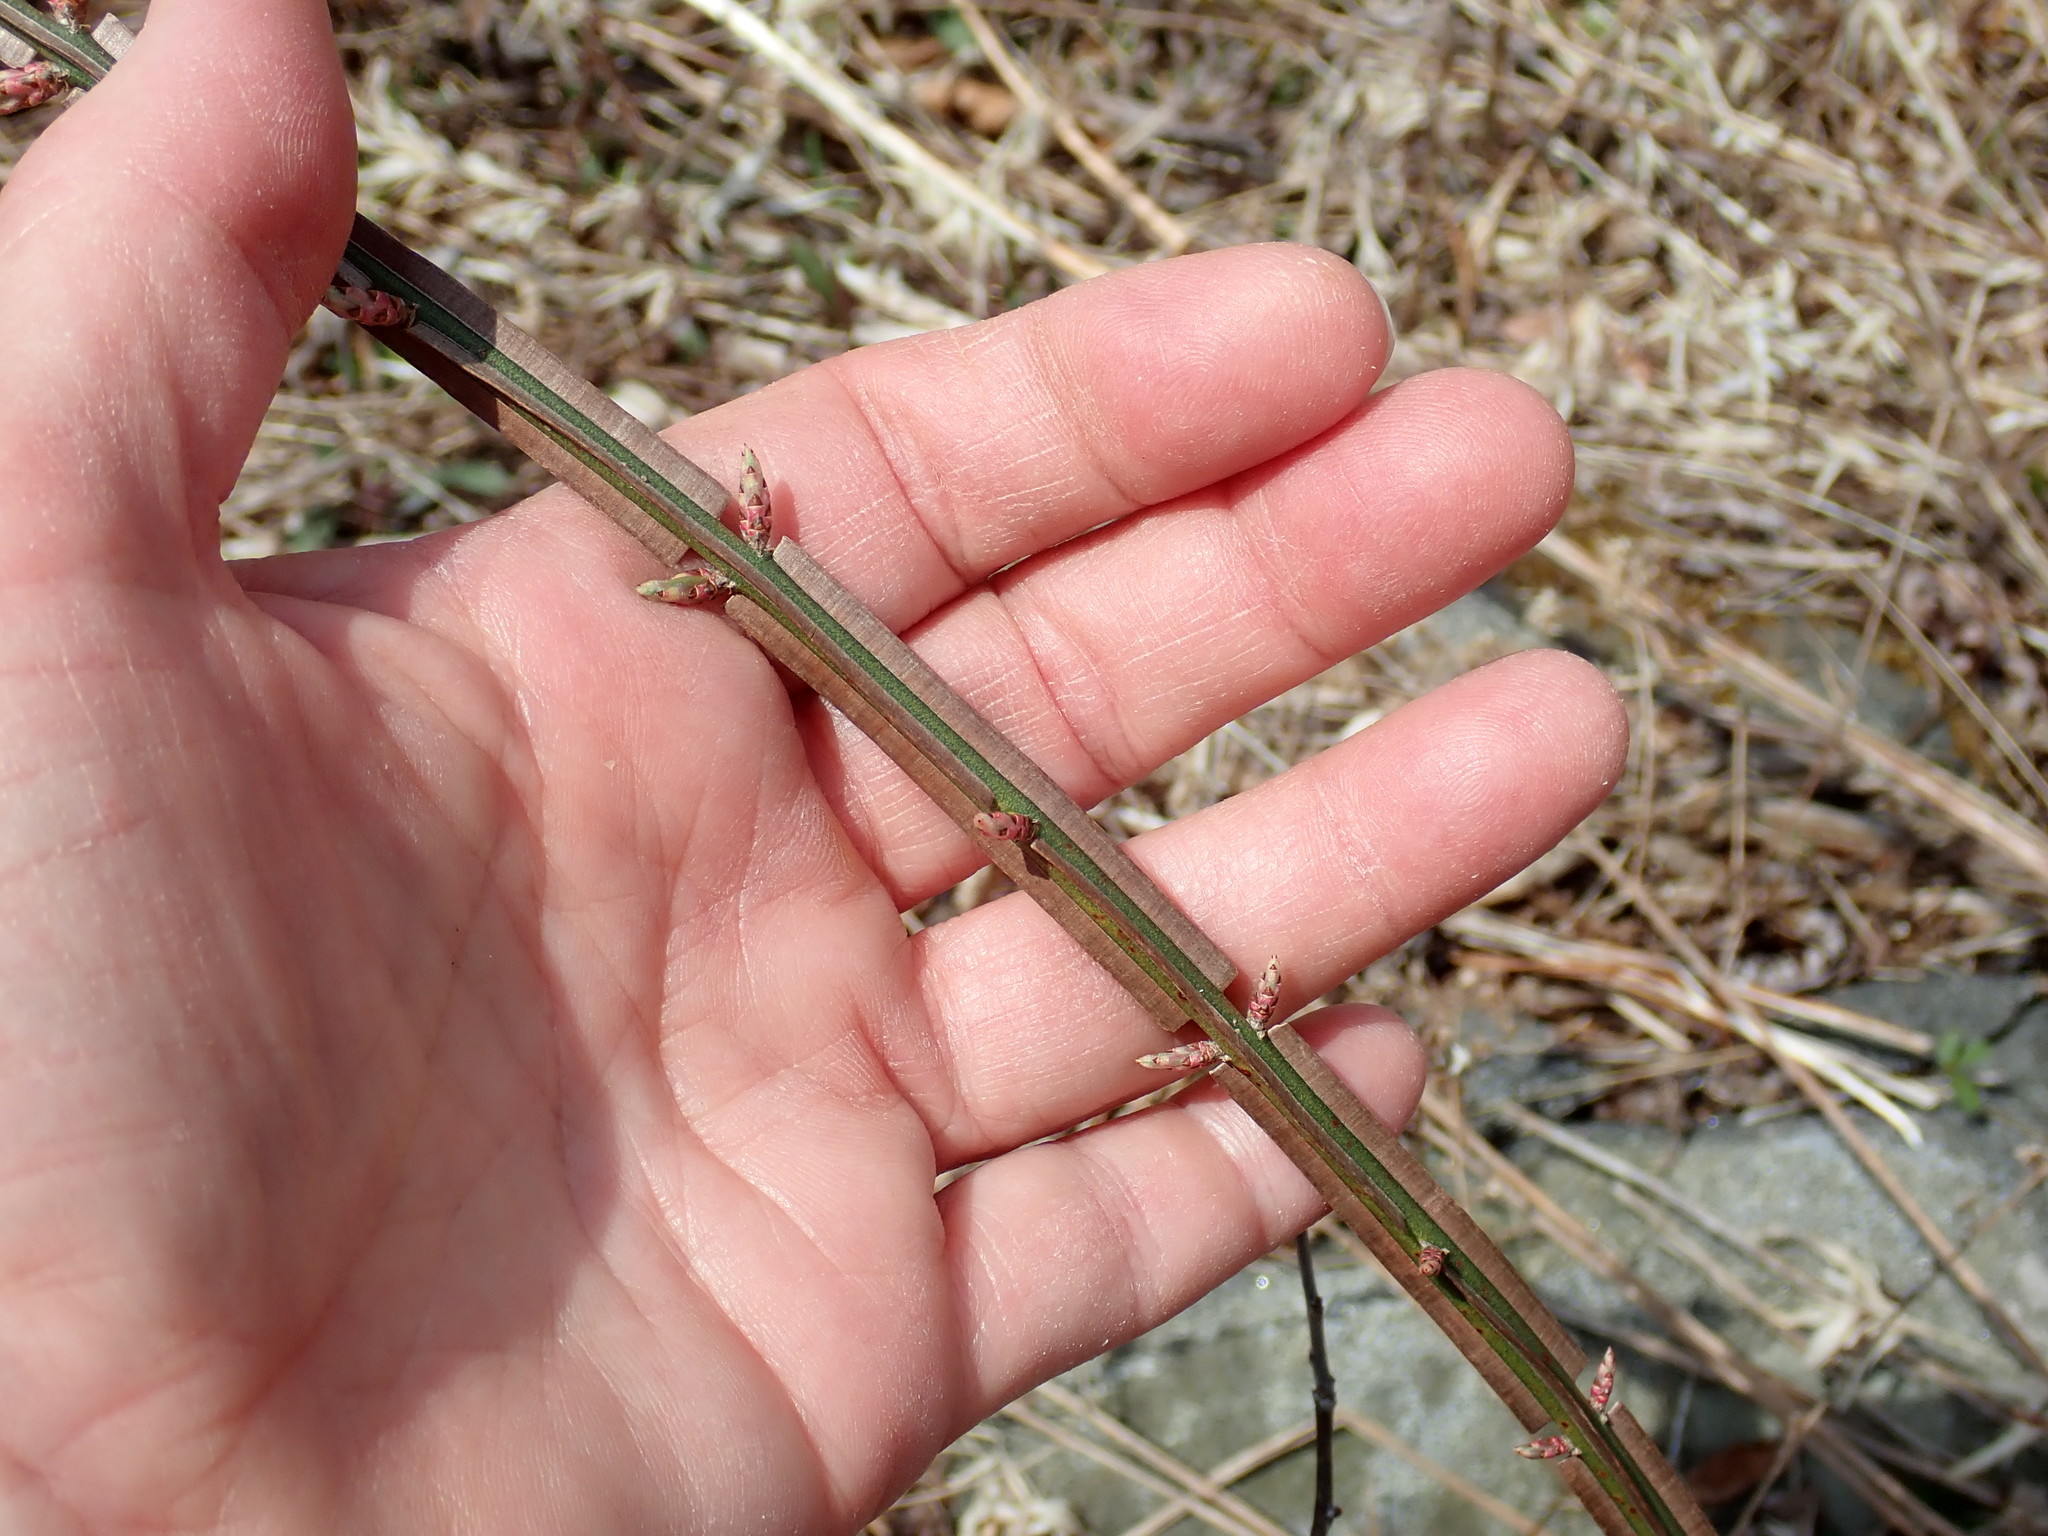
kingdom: Plantae
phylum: Tracheophyta
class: Magnoliopsida
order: Celastrales
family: Celastraceae
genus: Euonymus
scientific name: Euonymus alatus
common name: Winged euonymus
